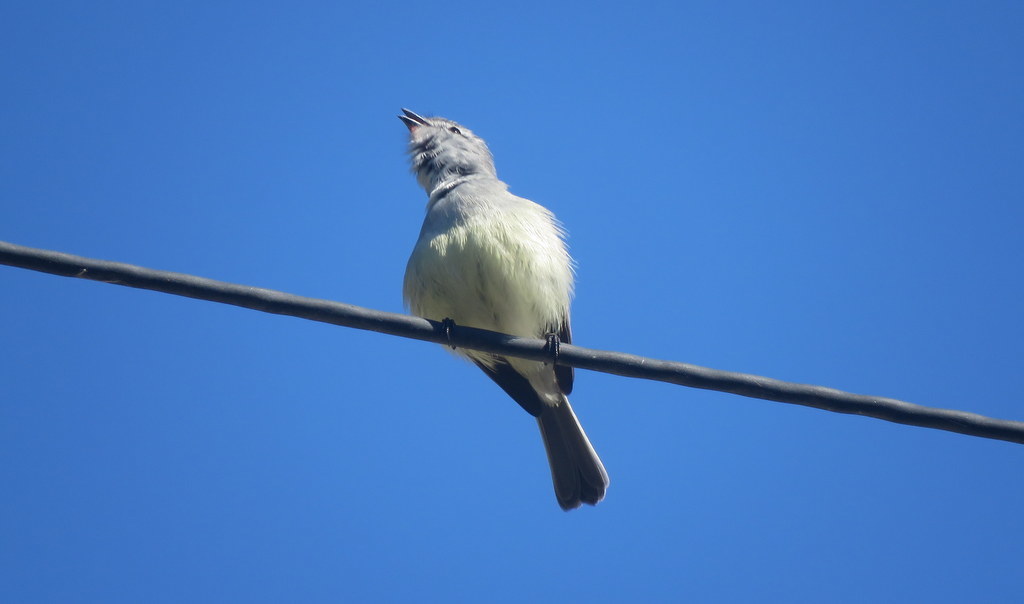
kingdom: Animalia
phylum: Chordata
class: Aves
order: Passeriformes
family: Tyrannidae
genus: Serpophaga
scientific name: Serpophaga subcristata
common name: White-crested tyrannulet
